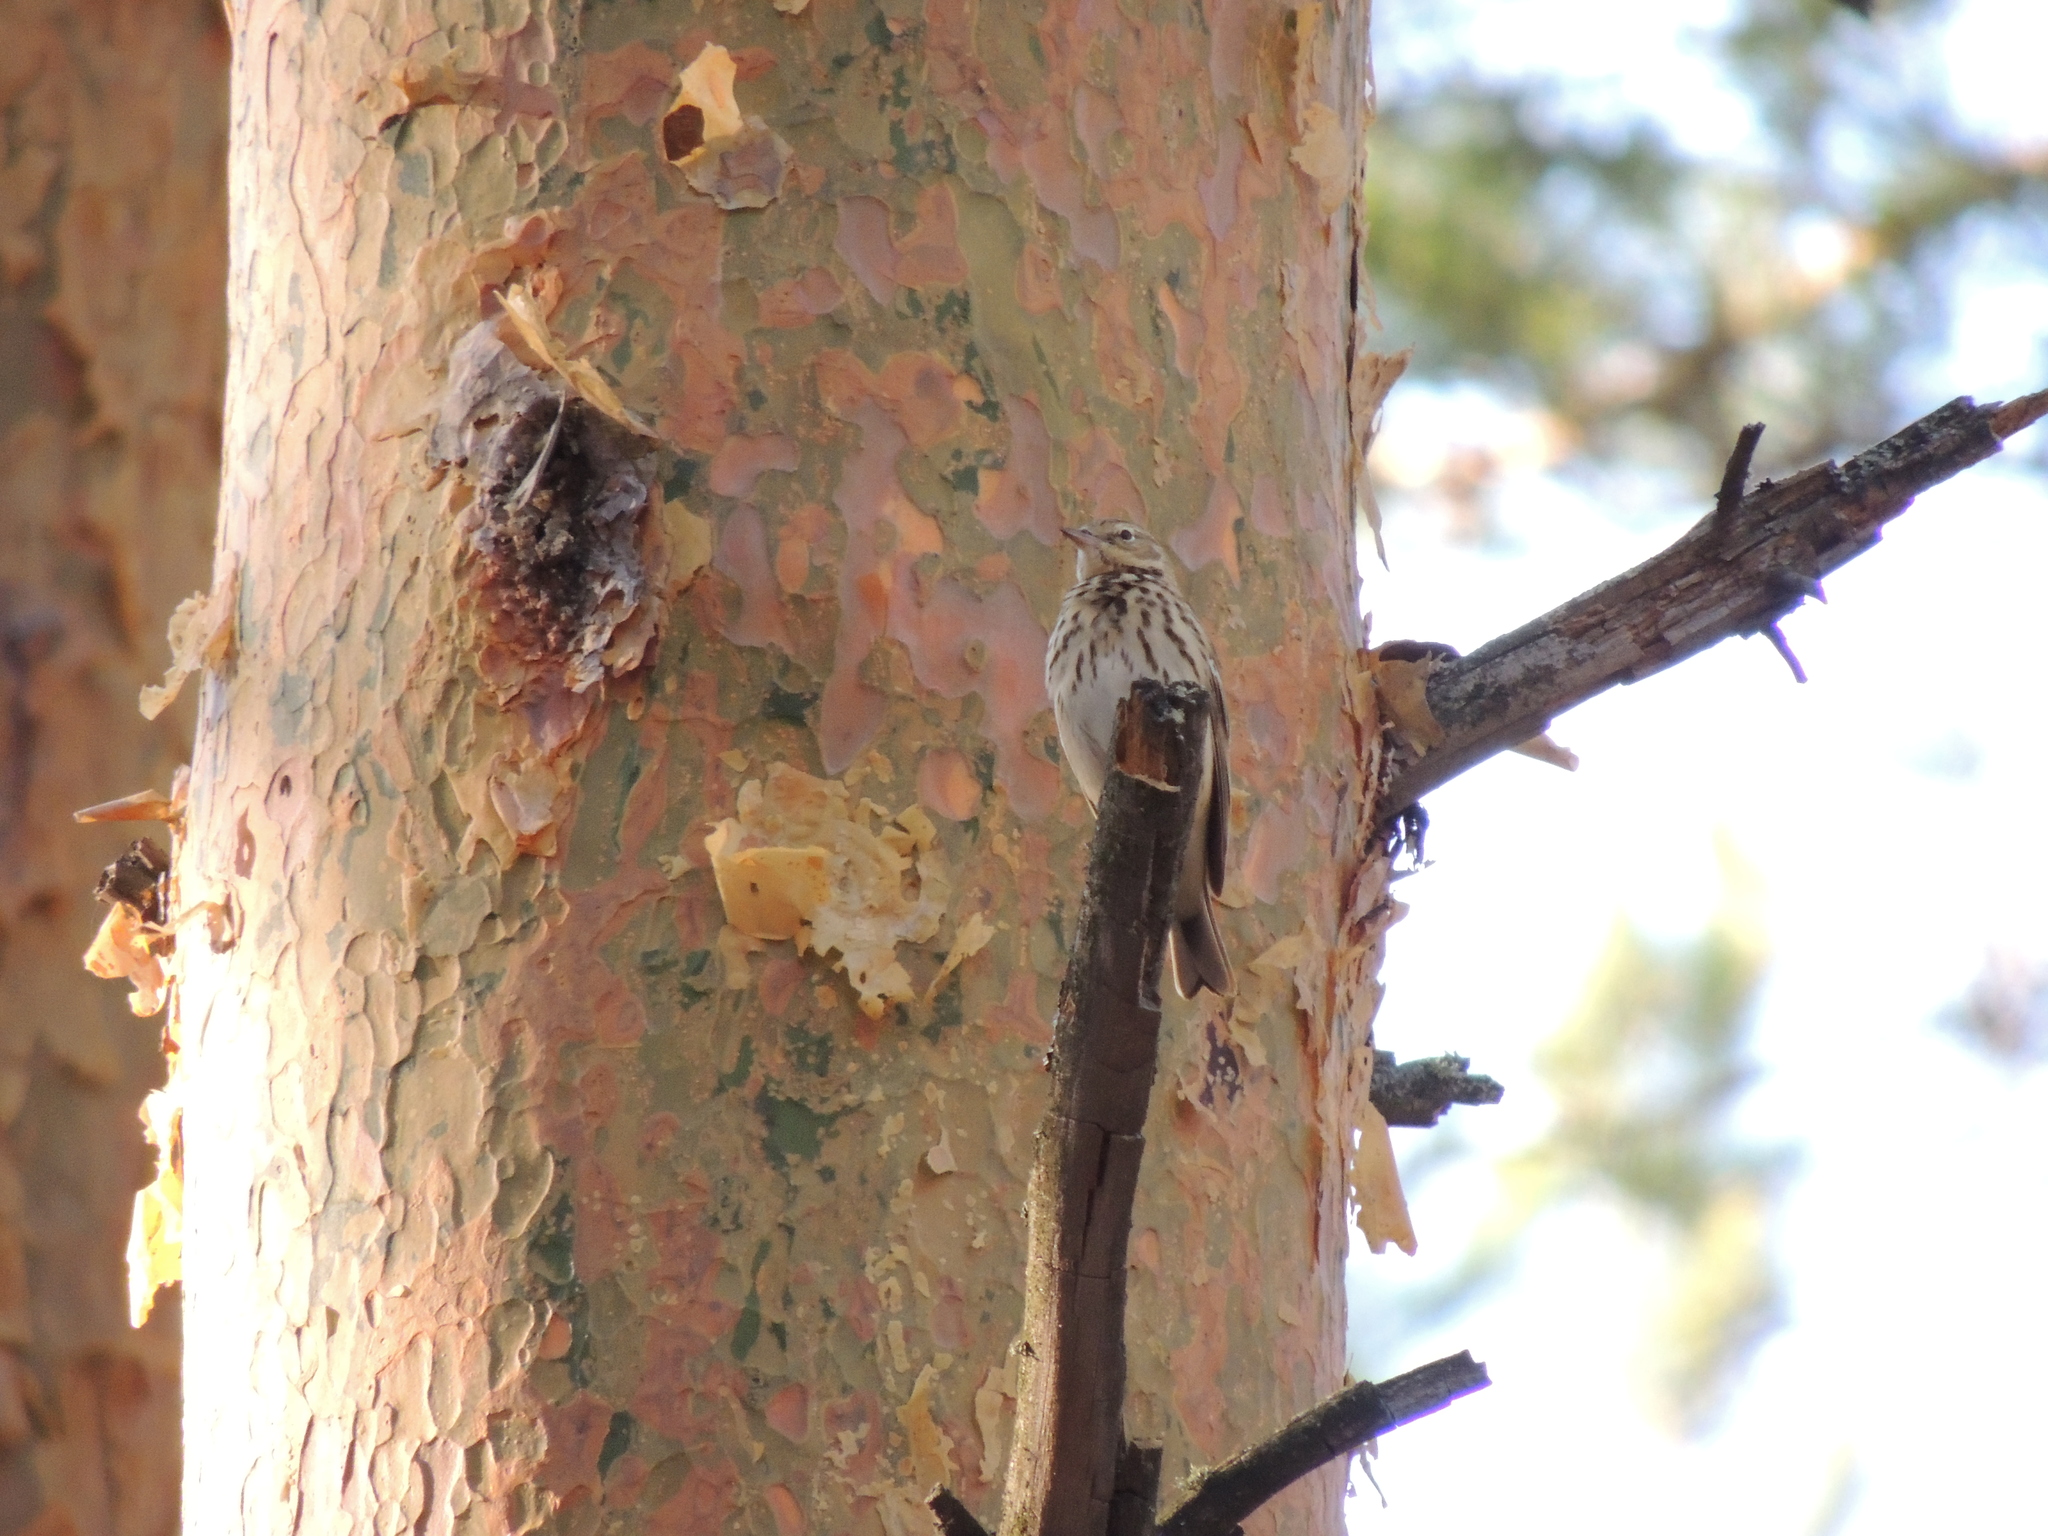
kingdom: Animalia
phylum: Chordata
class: Aves
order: Passeriformes
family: Motacillidae
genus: Anthus
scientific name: Anthus trivialis
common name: Tree pipit
